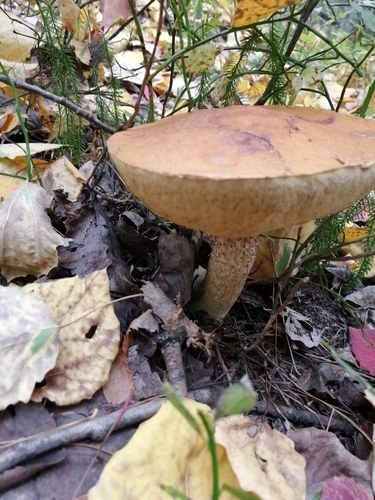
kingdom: Fungi
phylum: Basidiomycota
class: Agaricomycetes
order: Boletales
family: Boletaceae
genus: Leccinum
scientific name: Leccinum scabrum
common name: Blushing bolete
